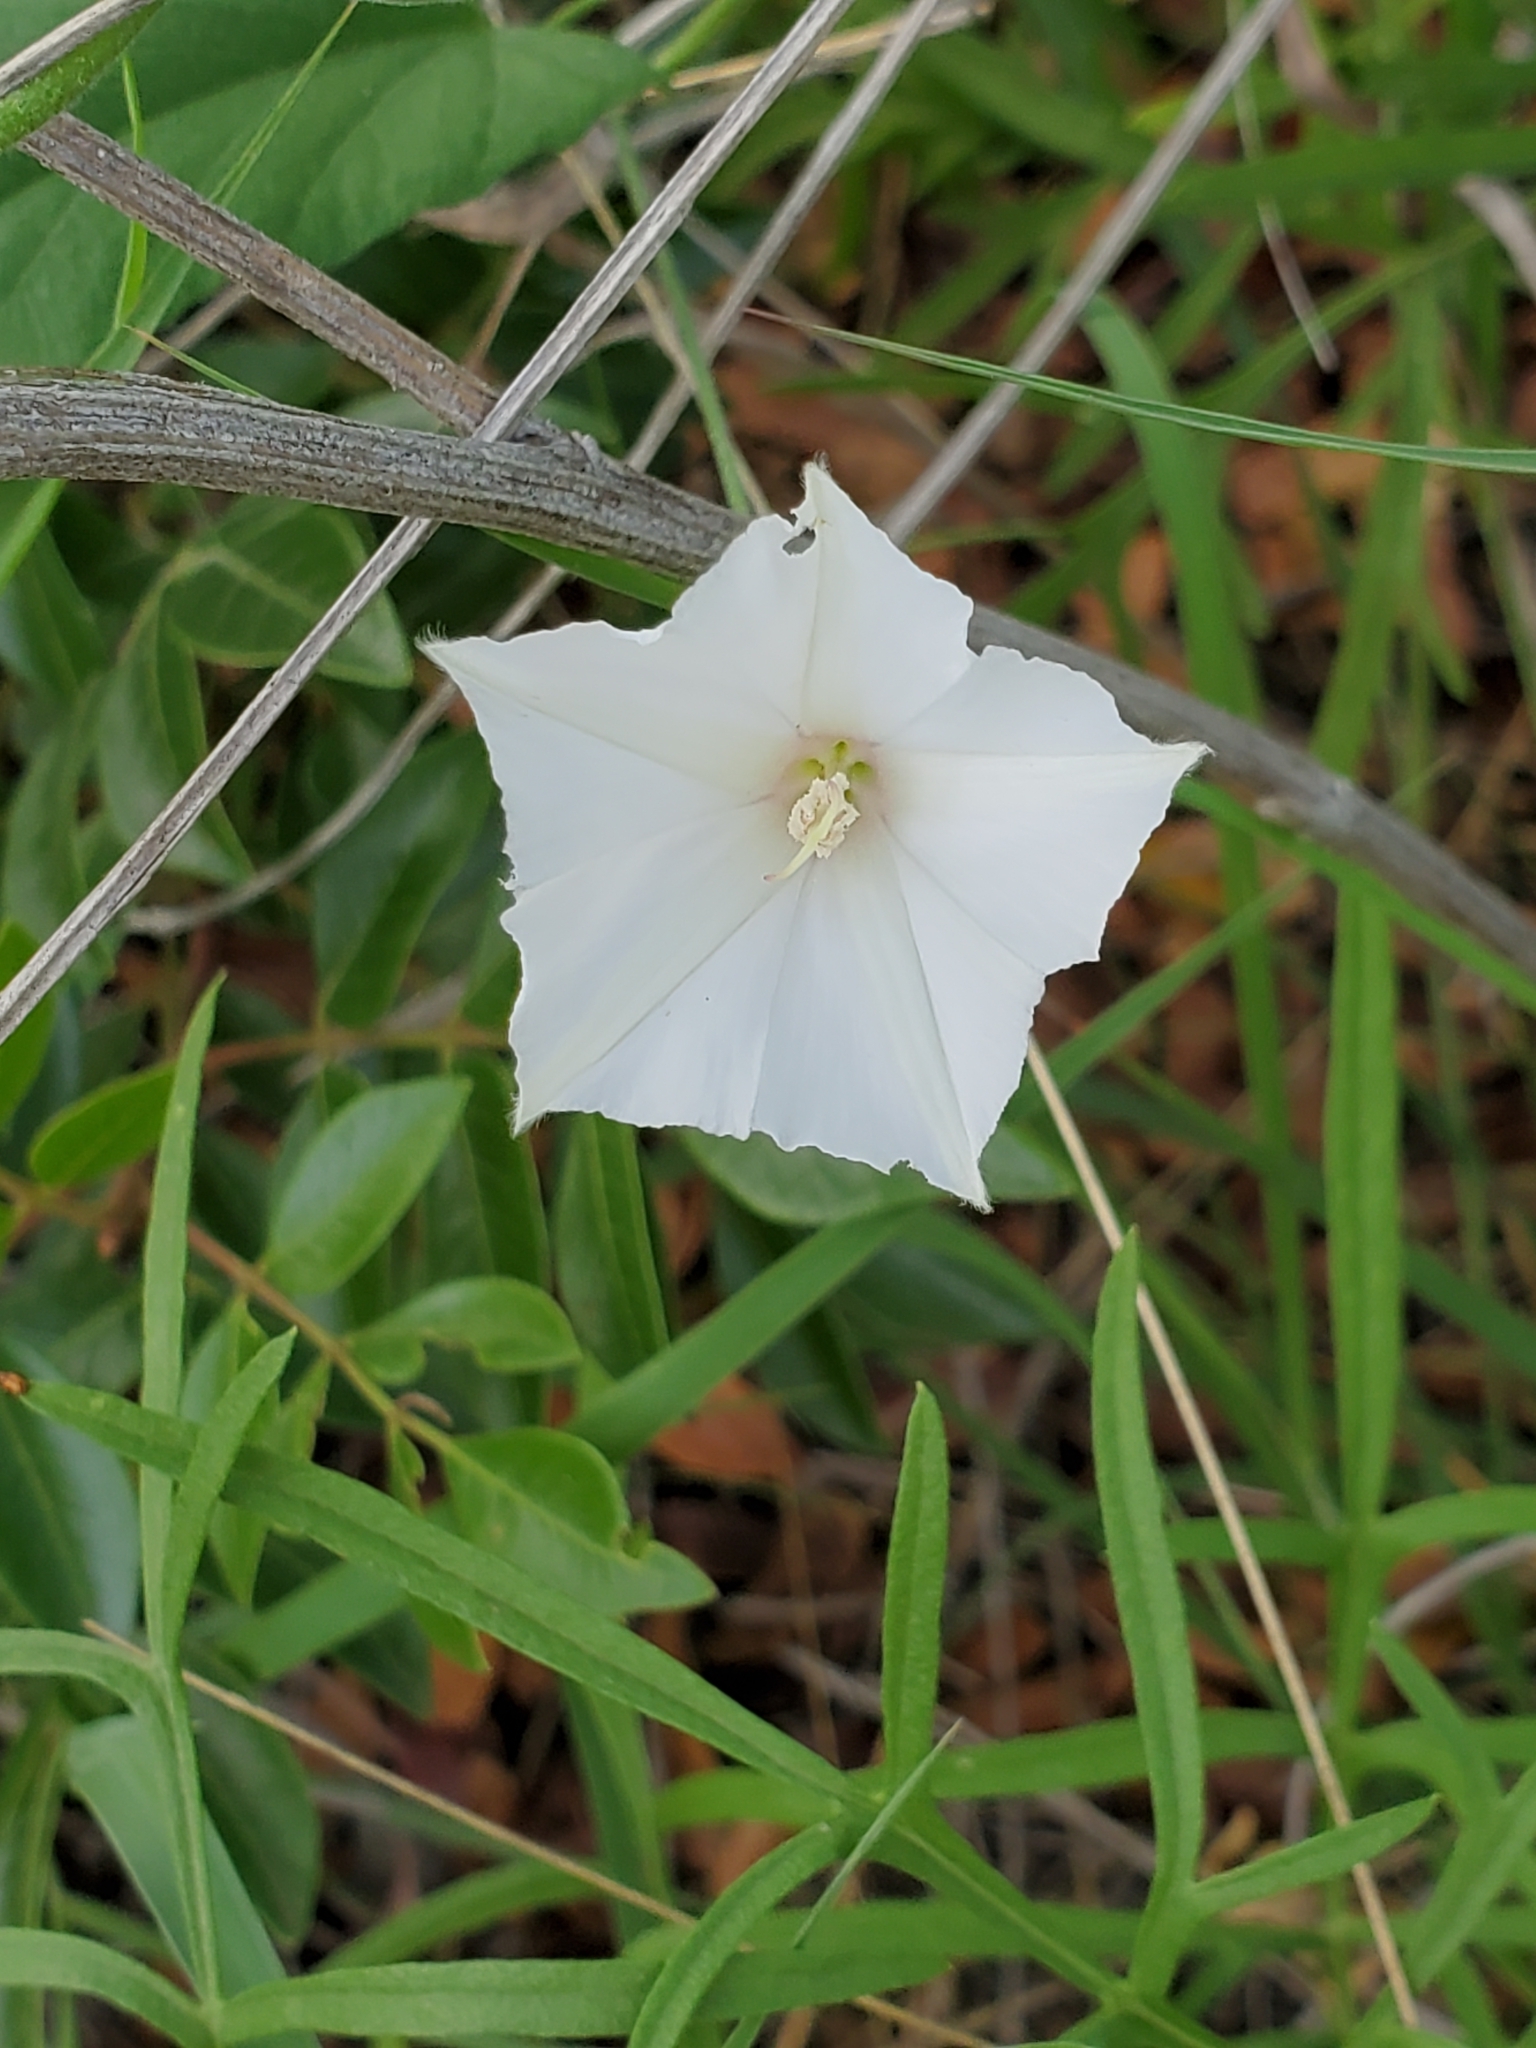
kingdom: Plantae
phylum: Tracheophyta
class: Magnoliopsida
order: Solanales
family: Convolvulaceae
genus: Convolvulus
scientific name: Convolvulus crenatifolius
